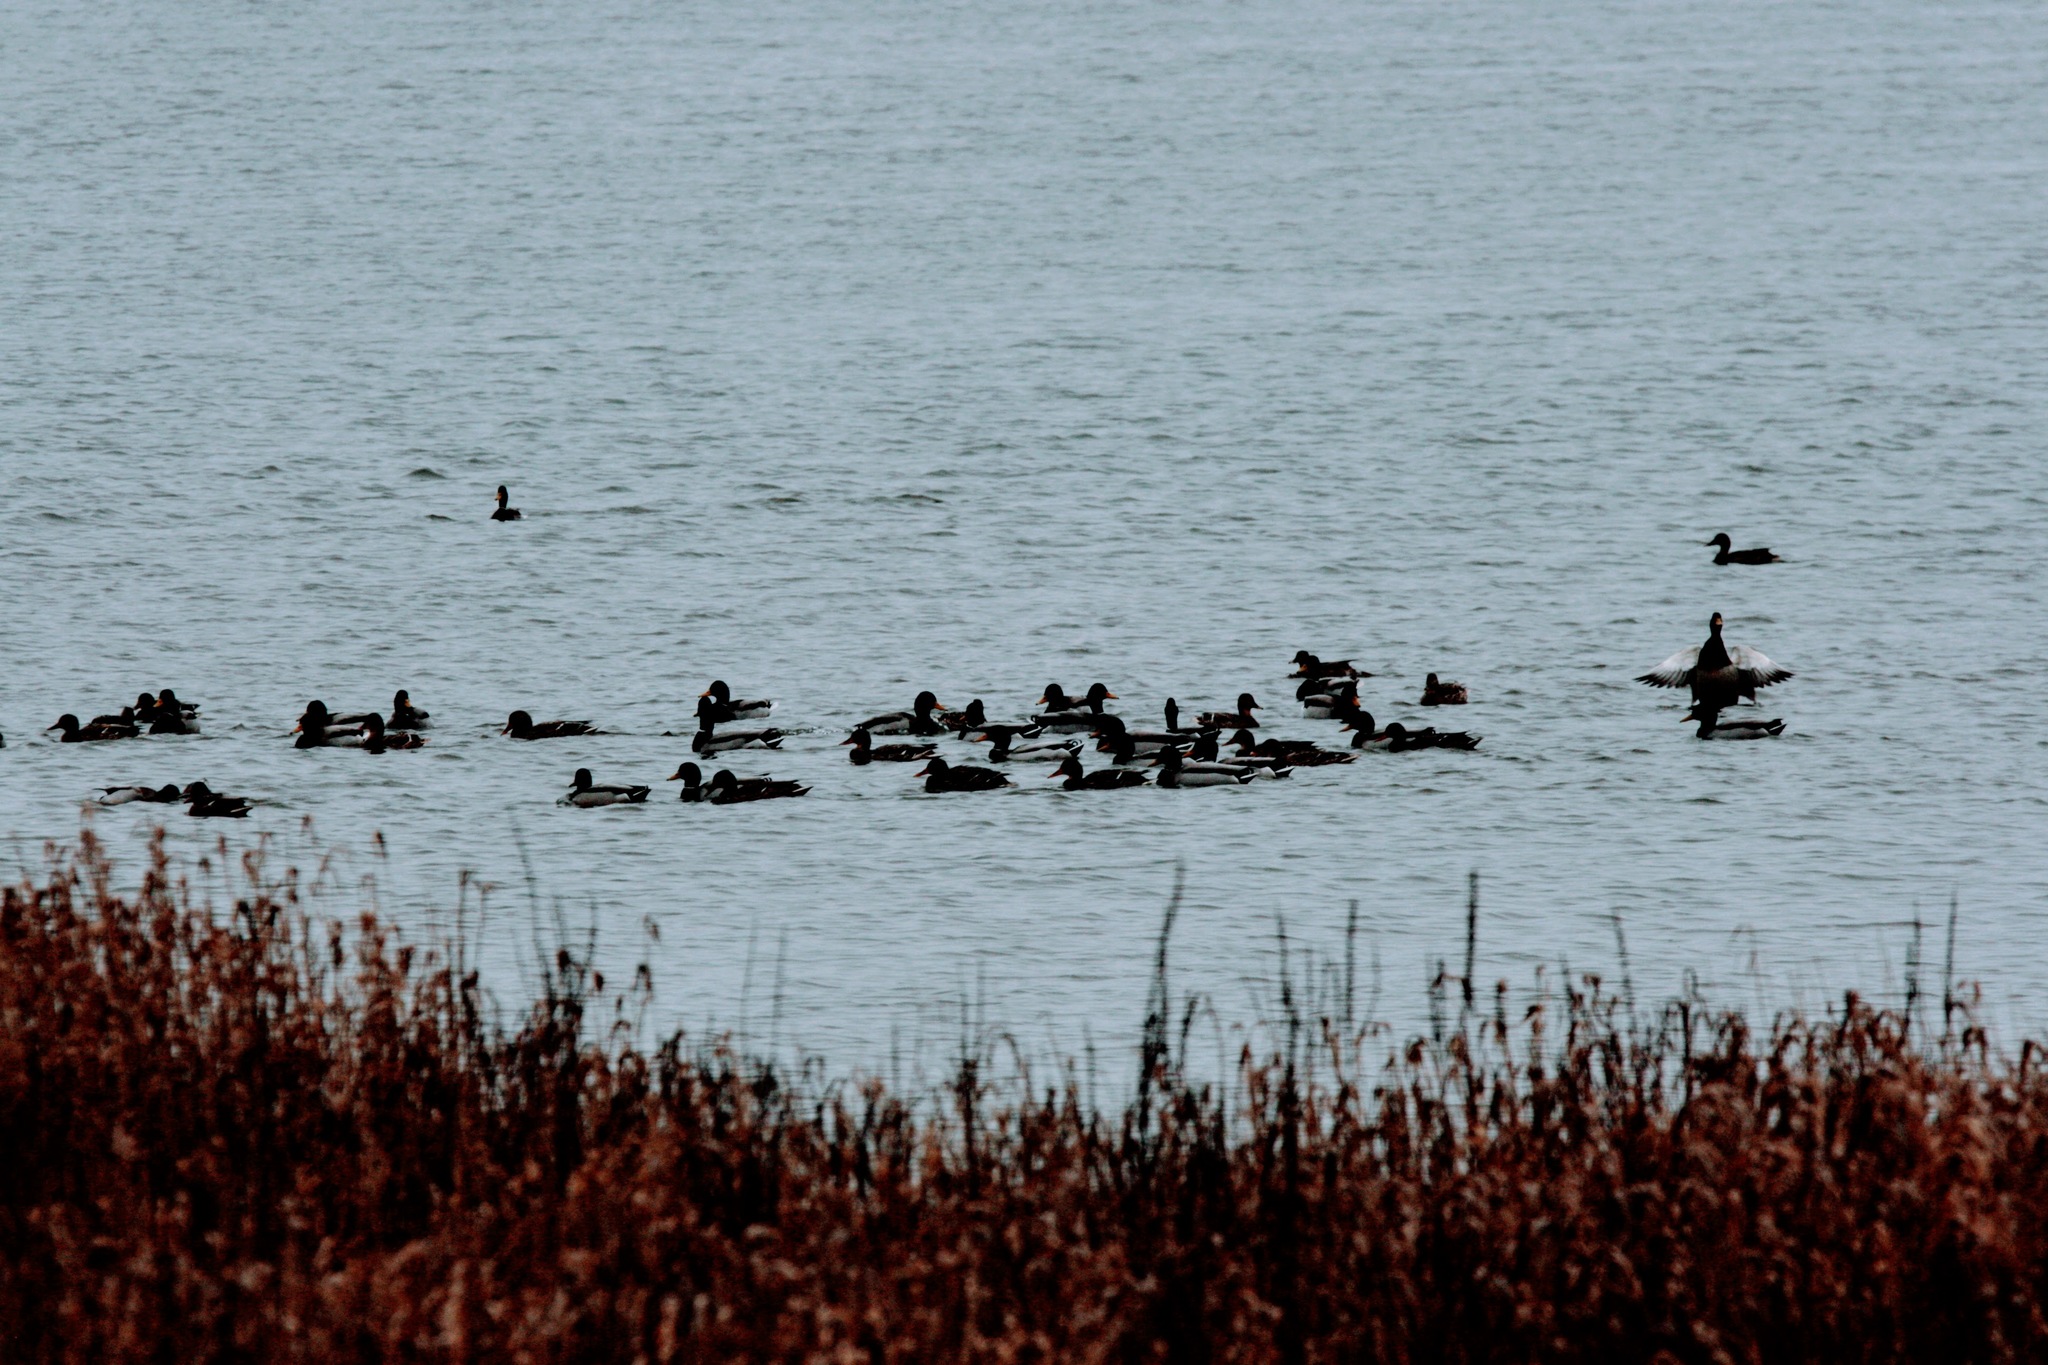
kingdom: Animalia
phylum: Chordata
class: Aves
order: Anseriformes
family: Anatidae
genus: Anas
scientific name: Anas platyrhynchos
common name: Mallard
